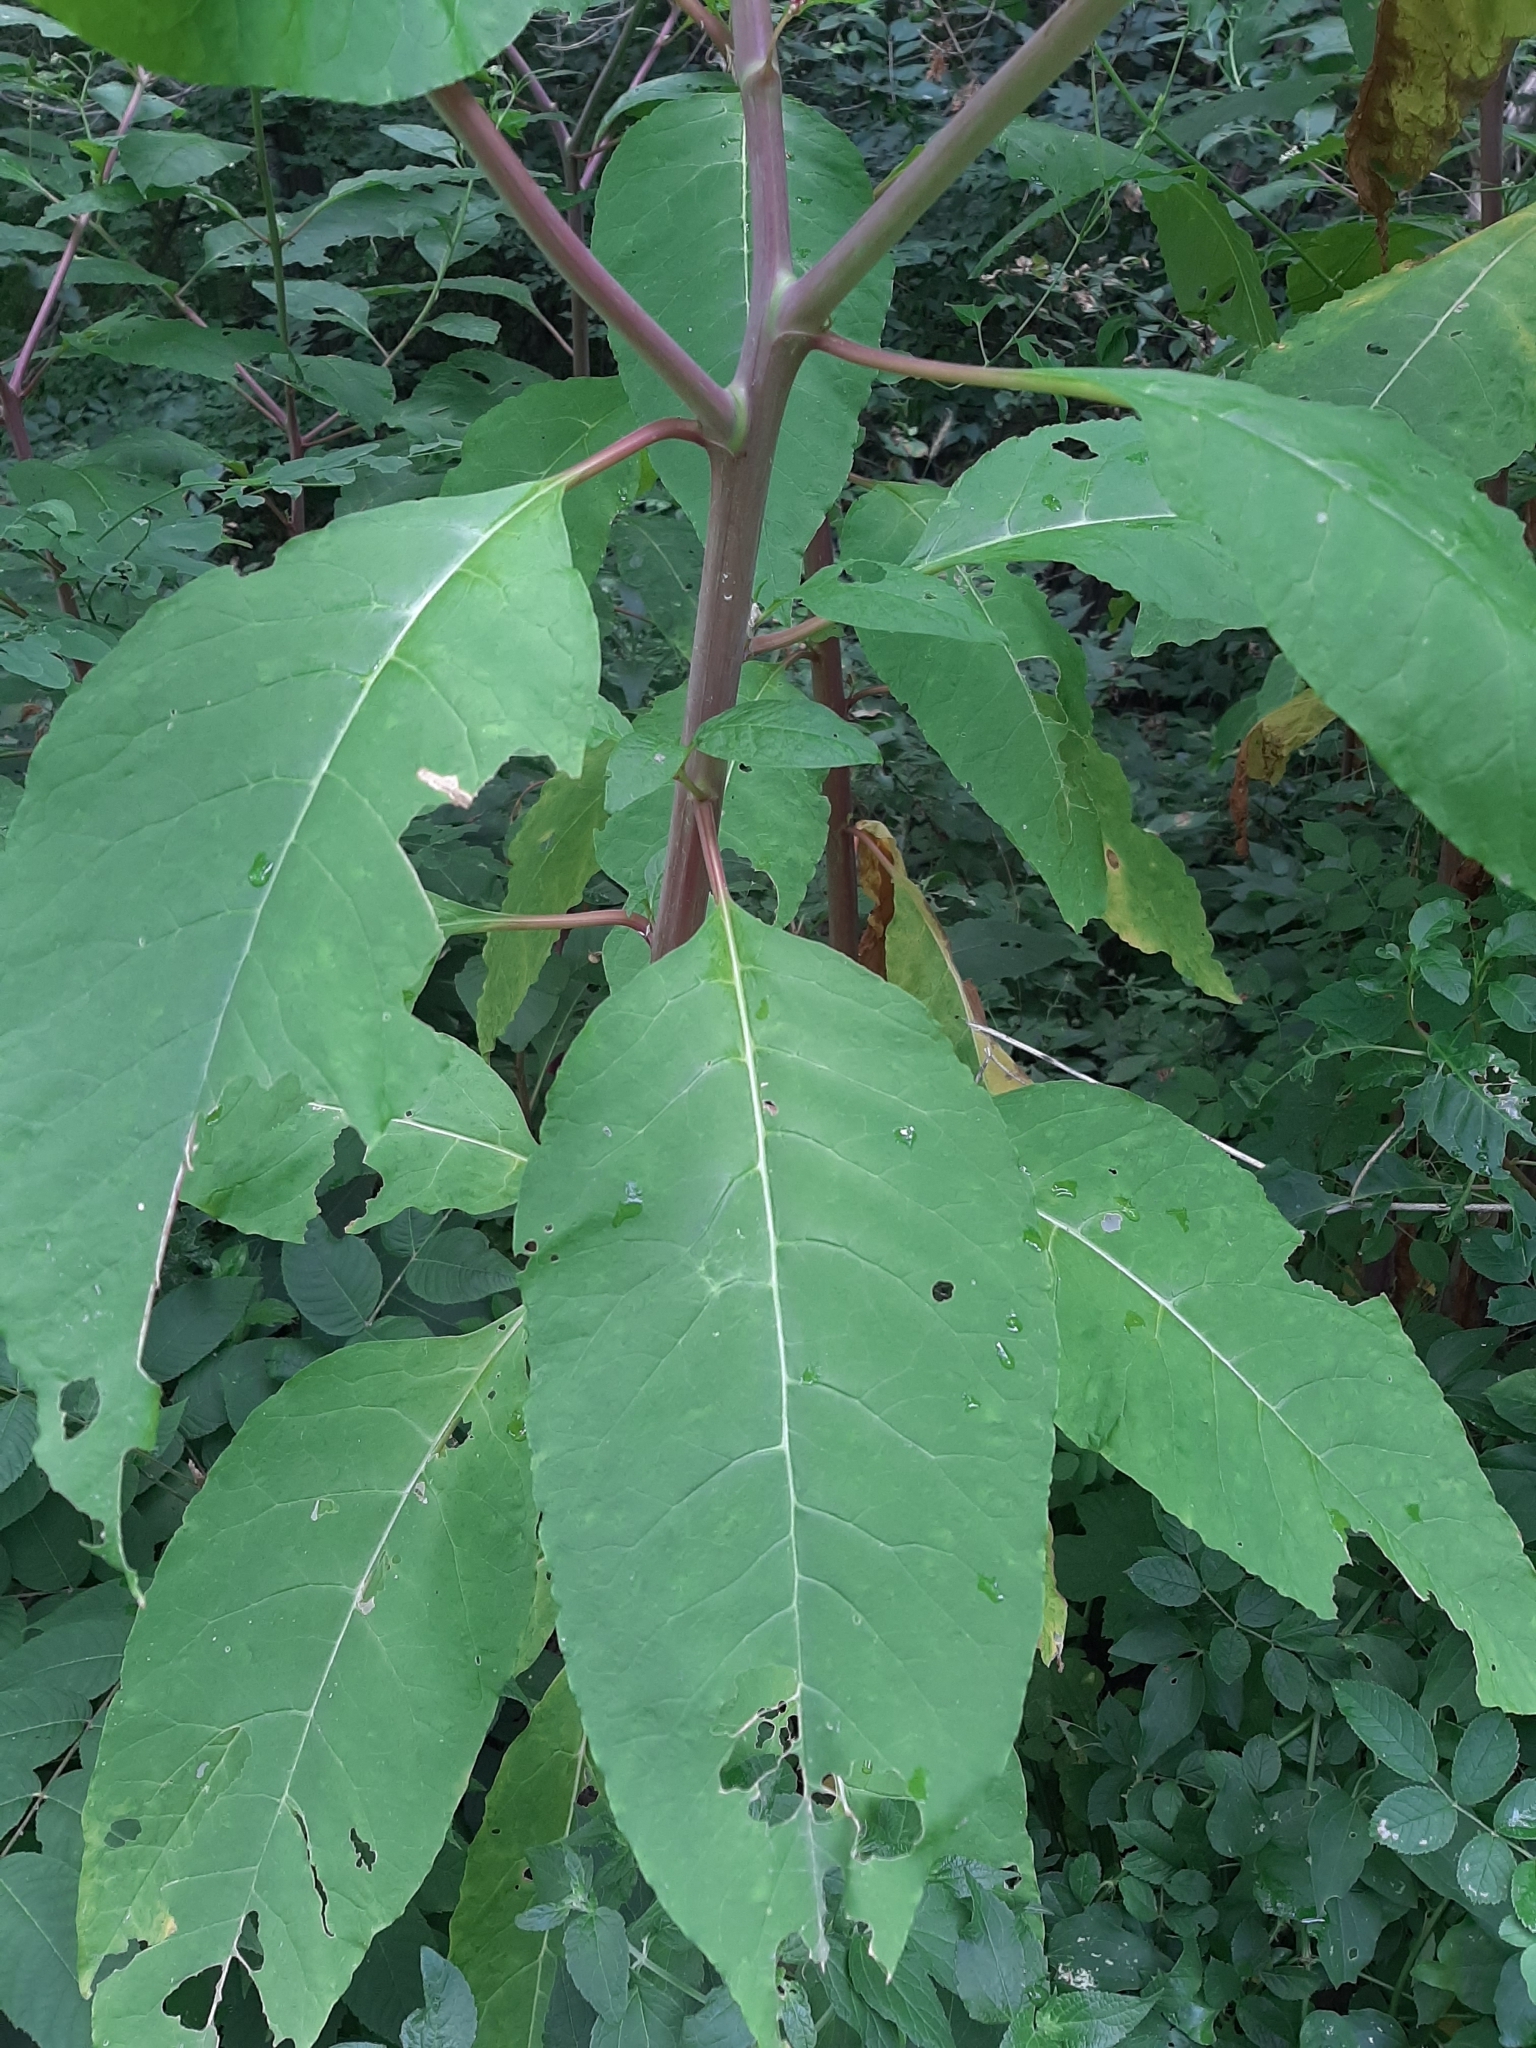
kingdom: Plantae
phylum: Tracheophyta
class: Magnoliopsida
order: Caryophyllales
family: Phytolaccaceae
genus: Phytolacca
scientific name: Phytolacca americana
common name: American pokeweed
